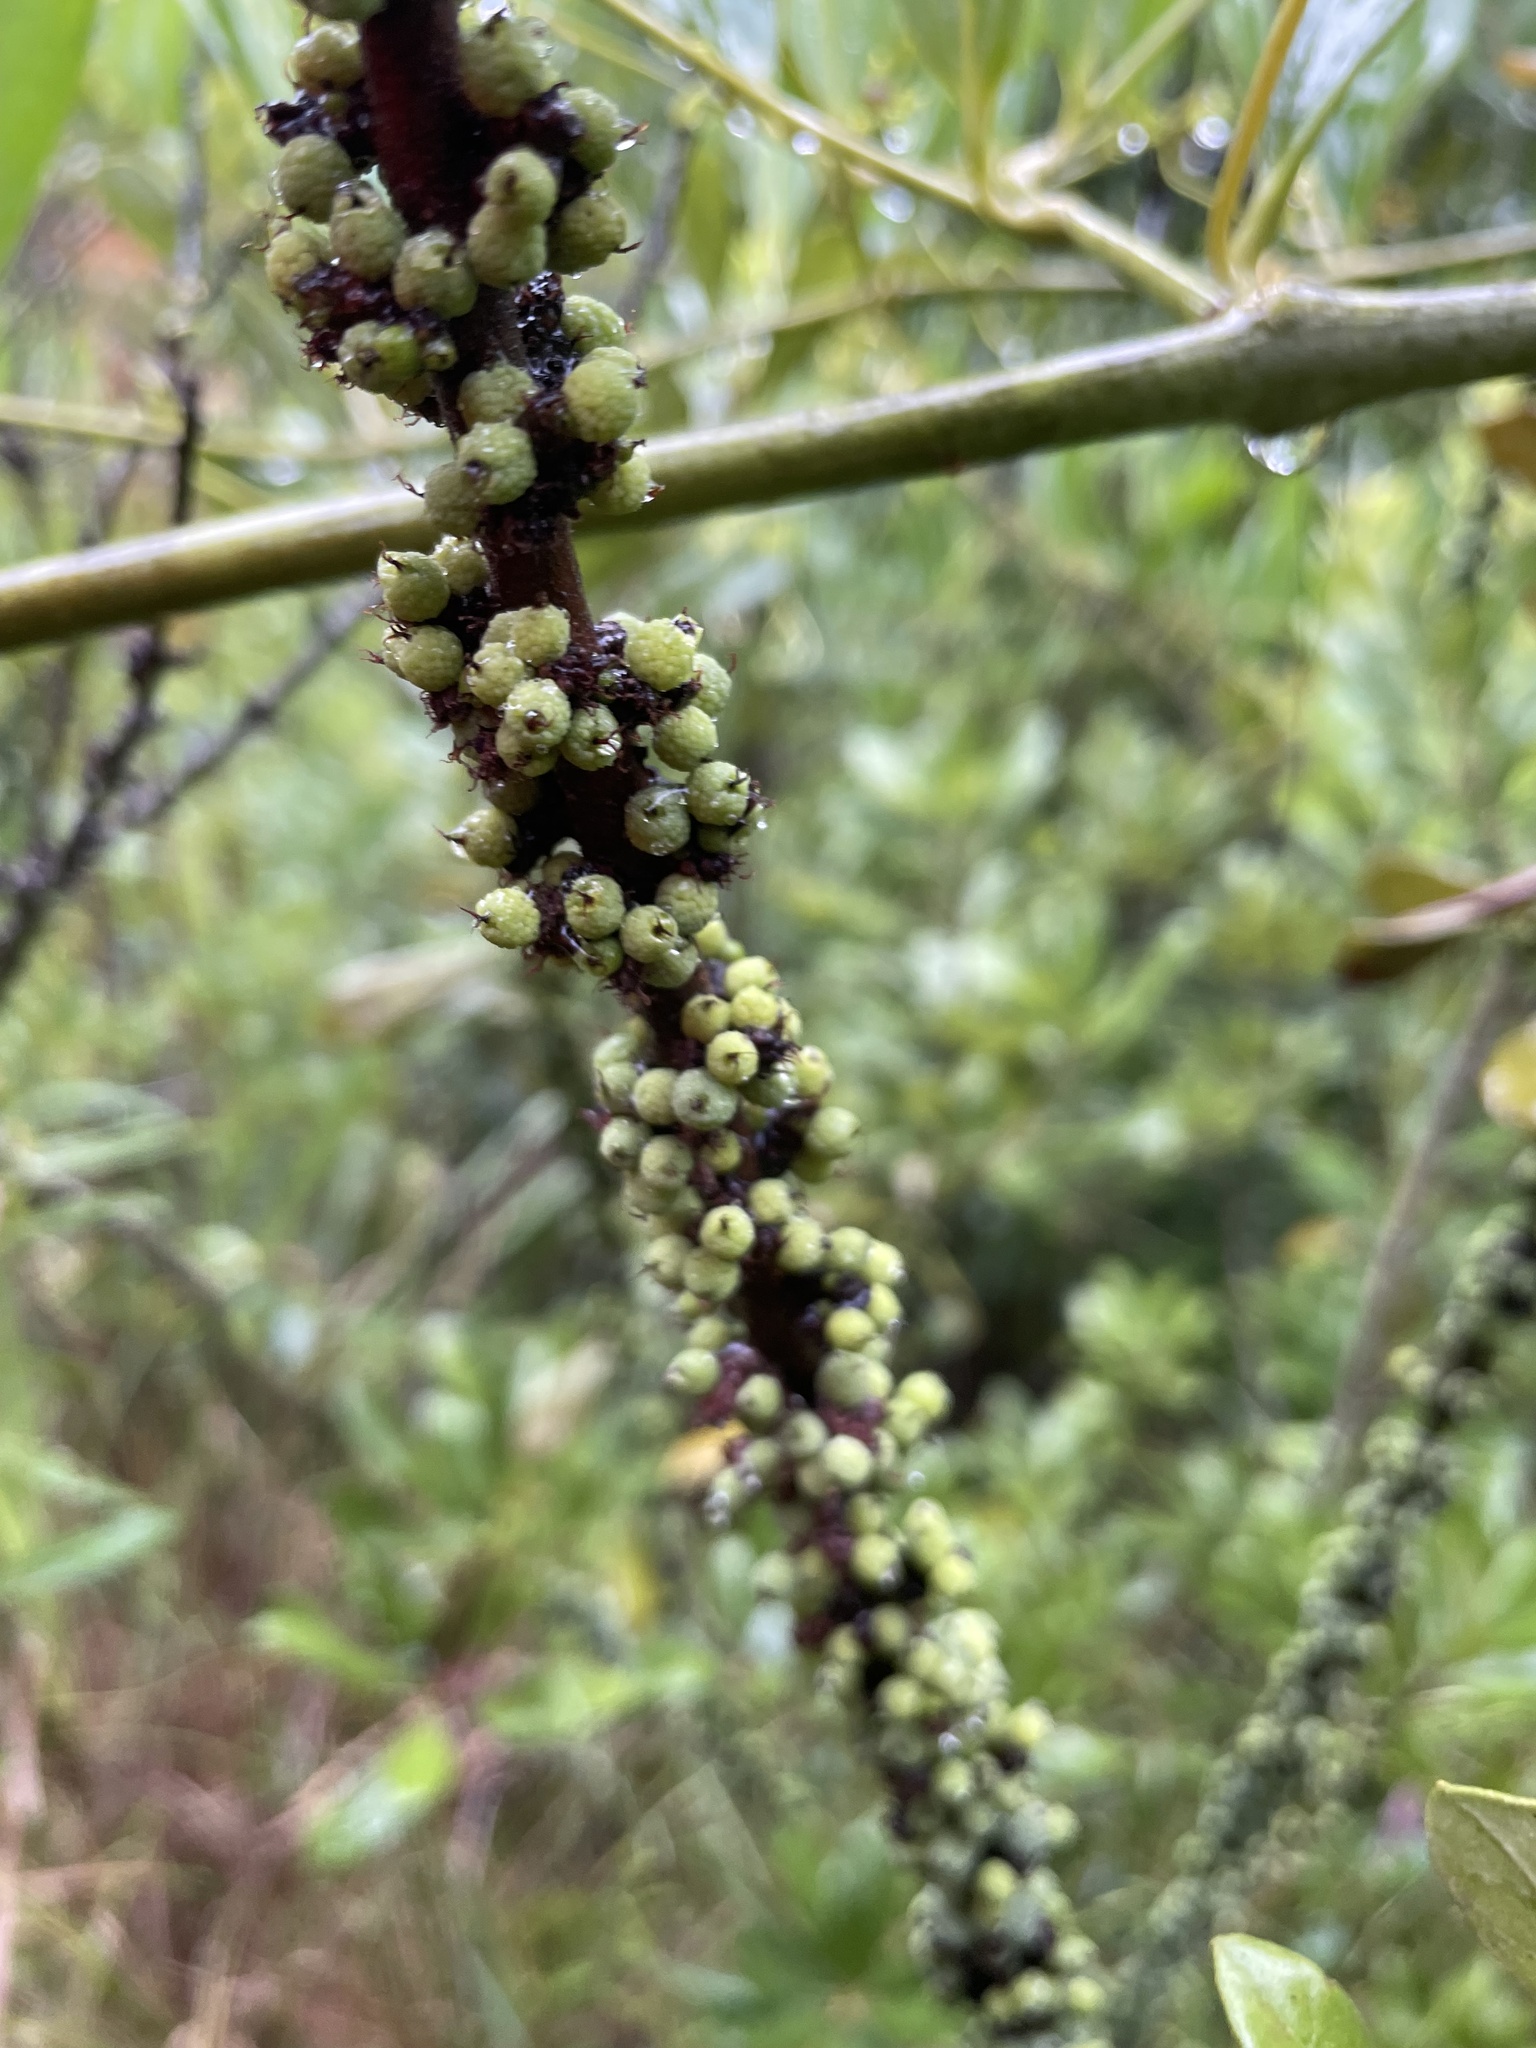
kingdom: Plantae
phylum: Tracheophyta
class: Magnoliopsida
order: Fagales
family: Myricaceae
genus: Morella
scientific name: Morella caroliniensis
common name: Evergreen bayberry
